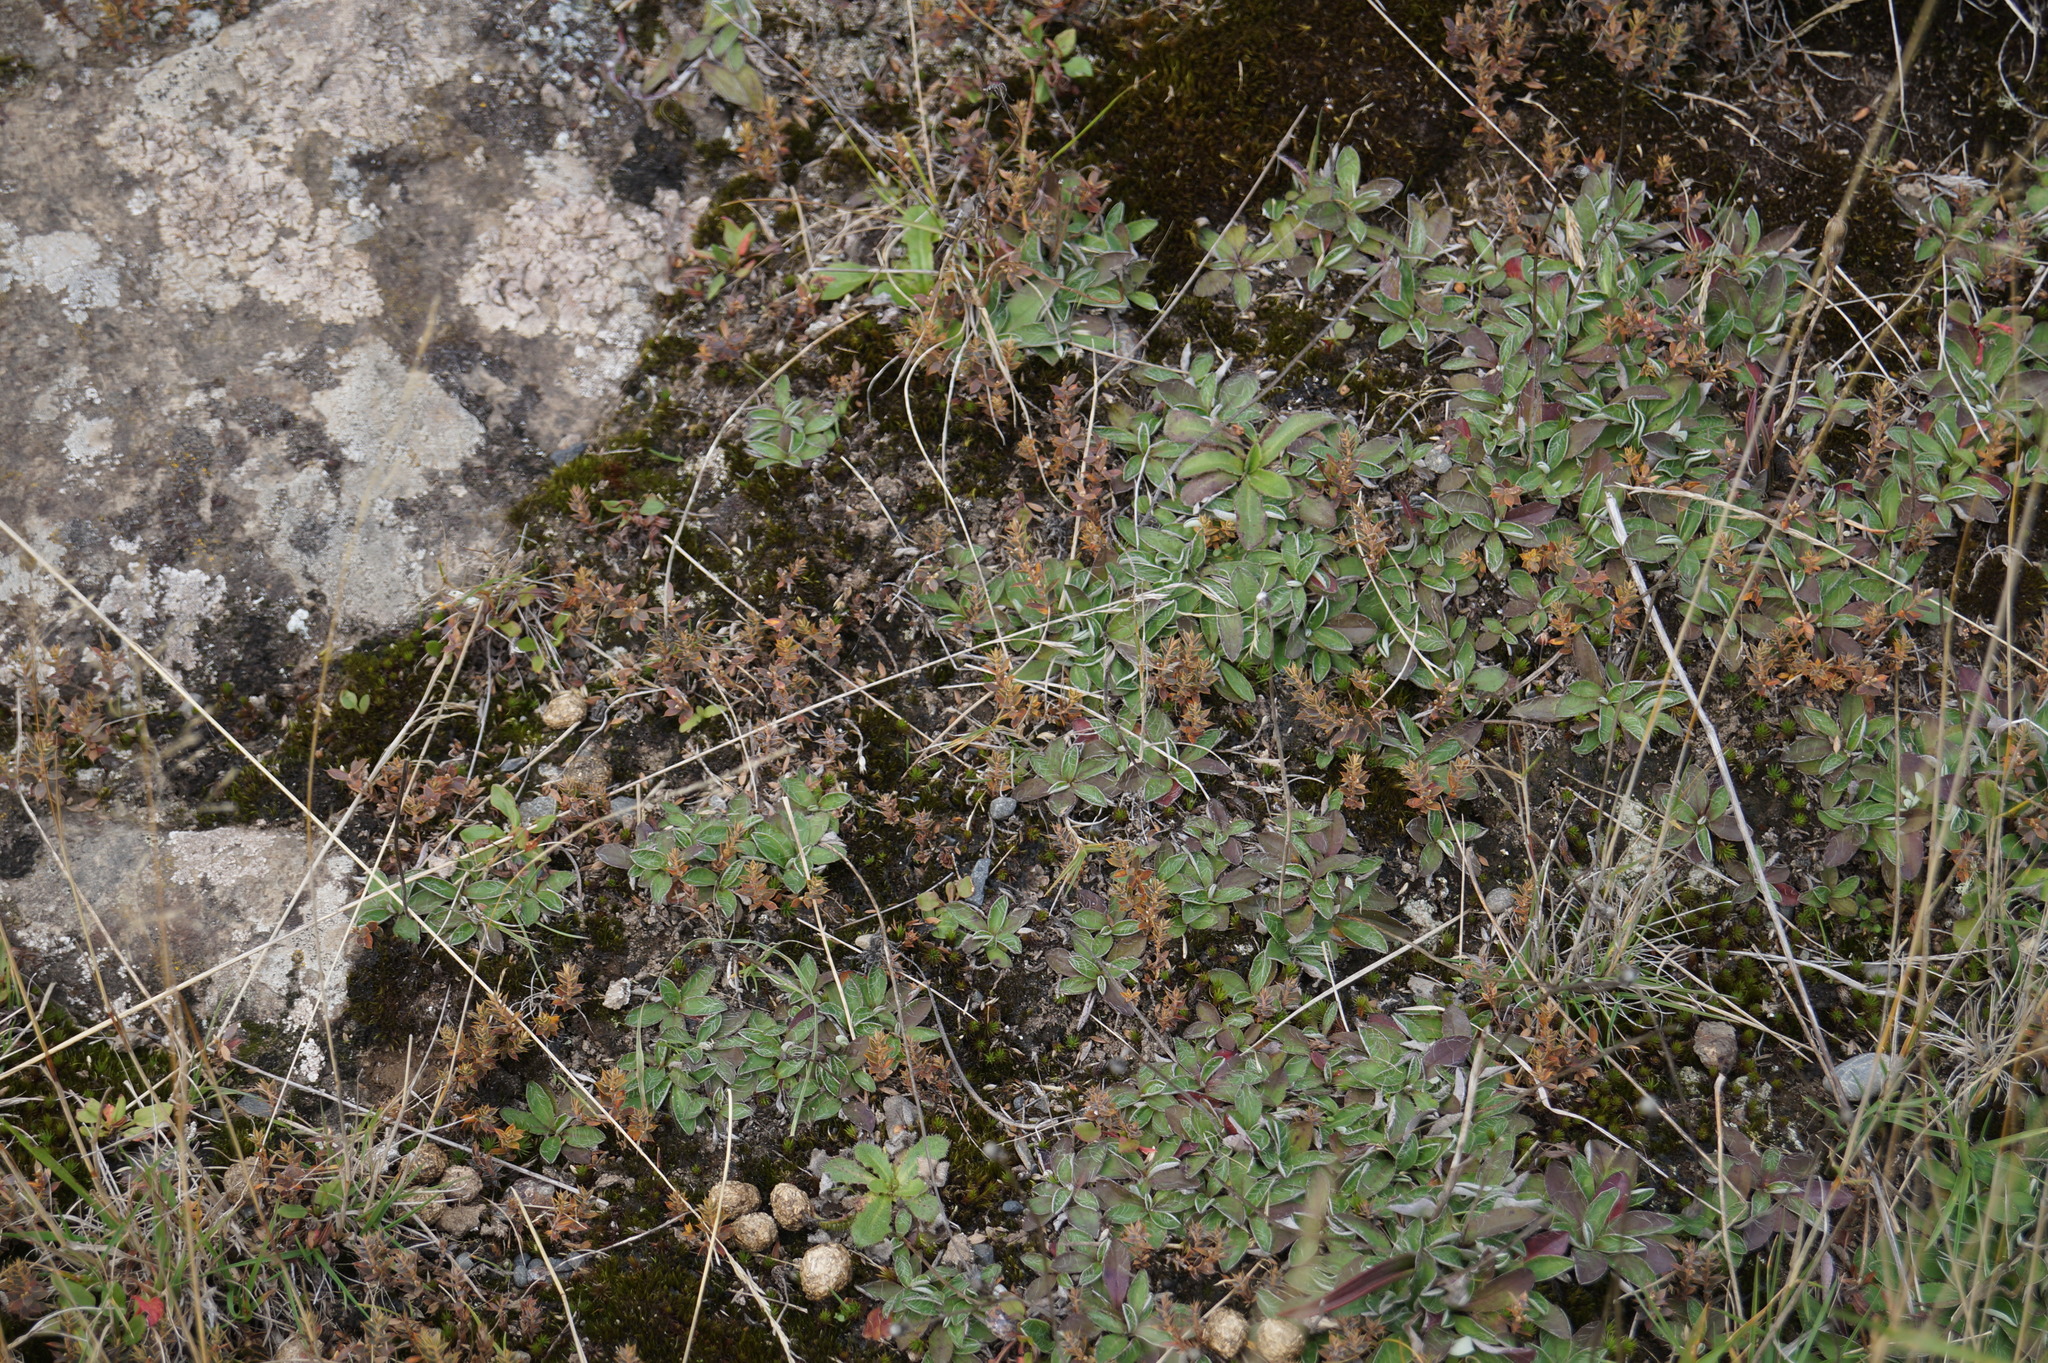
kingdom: Plantae
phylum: Tracheophyta
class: Magnoliopsida
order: Asterales
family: Asteraceae
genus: Pilosella
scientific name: Pilosella officinarum
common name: Mouse-ear hawkweed
